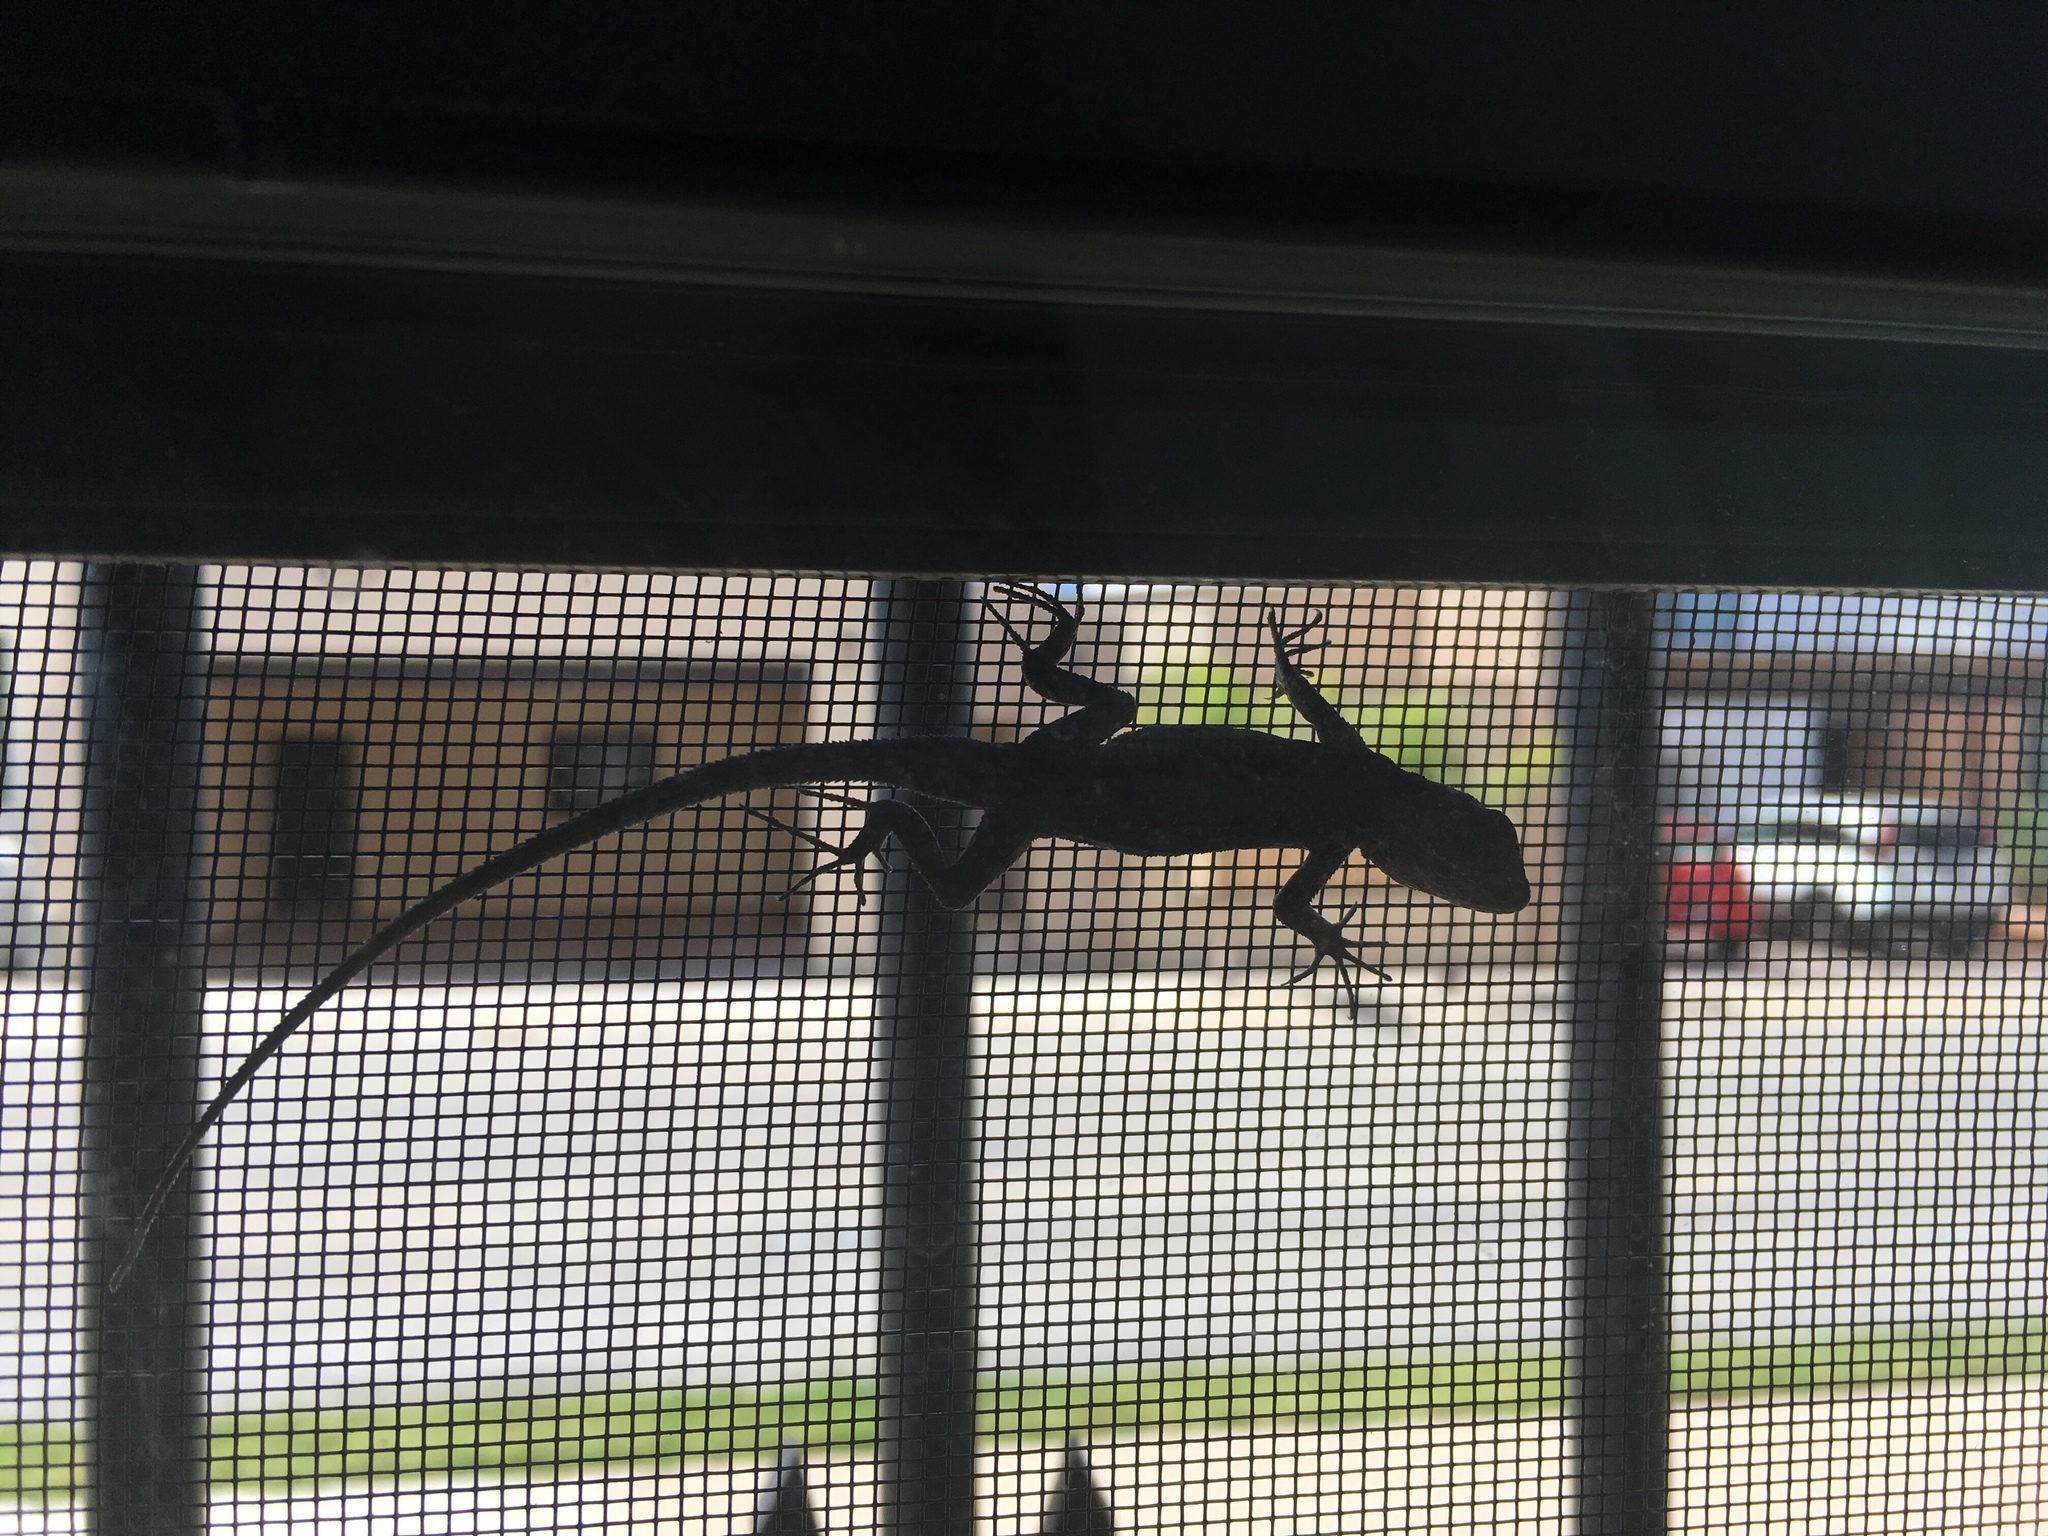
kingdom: Animalia
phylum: Chordata
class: Squamata
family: Phrynosomatidae
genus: Urosaurus
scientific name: Urosaurus ornatus
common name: Ornate tree lizard
